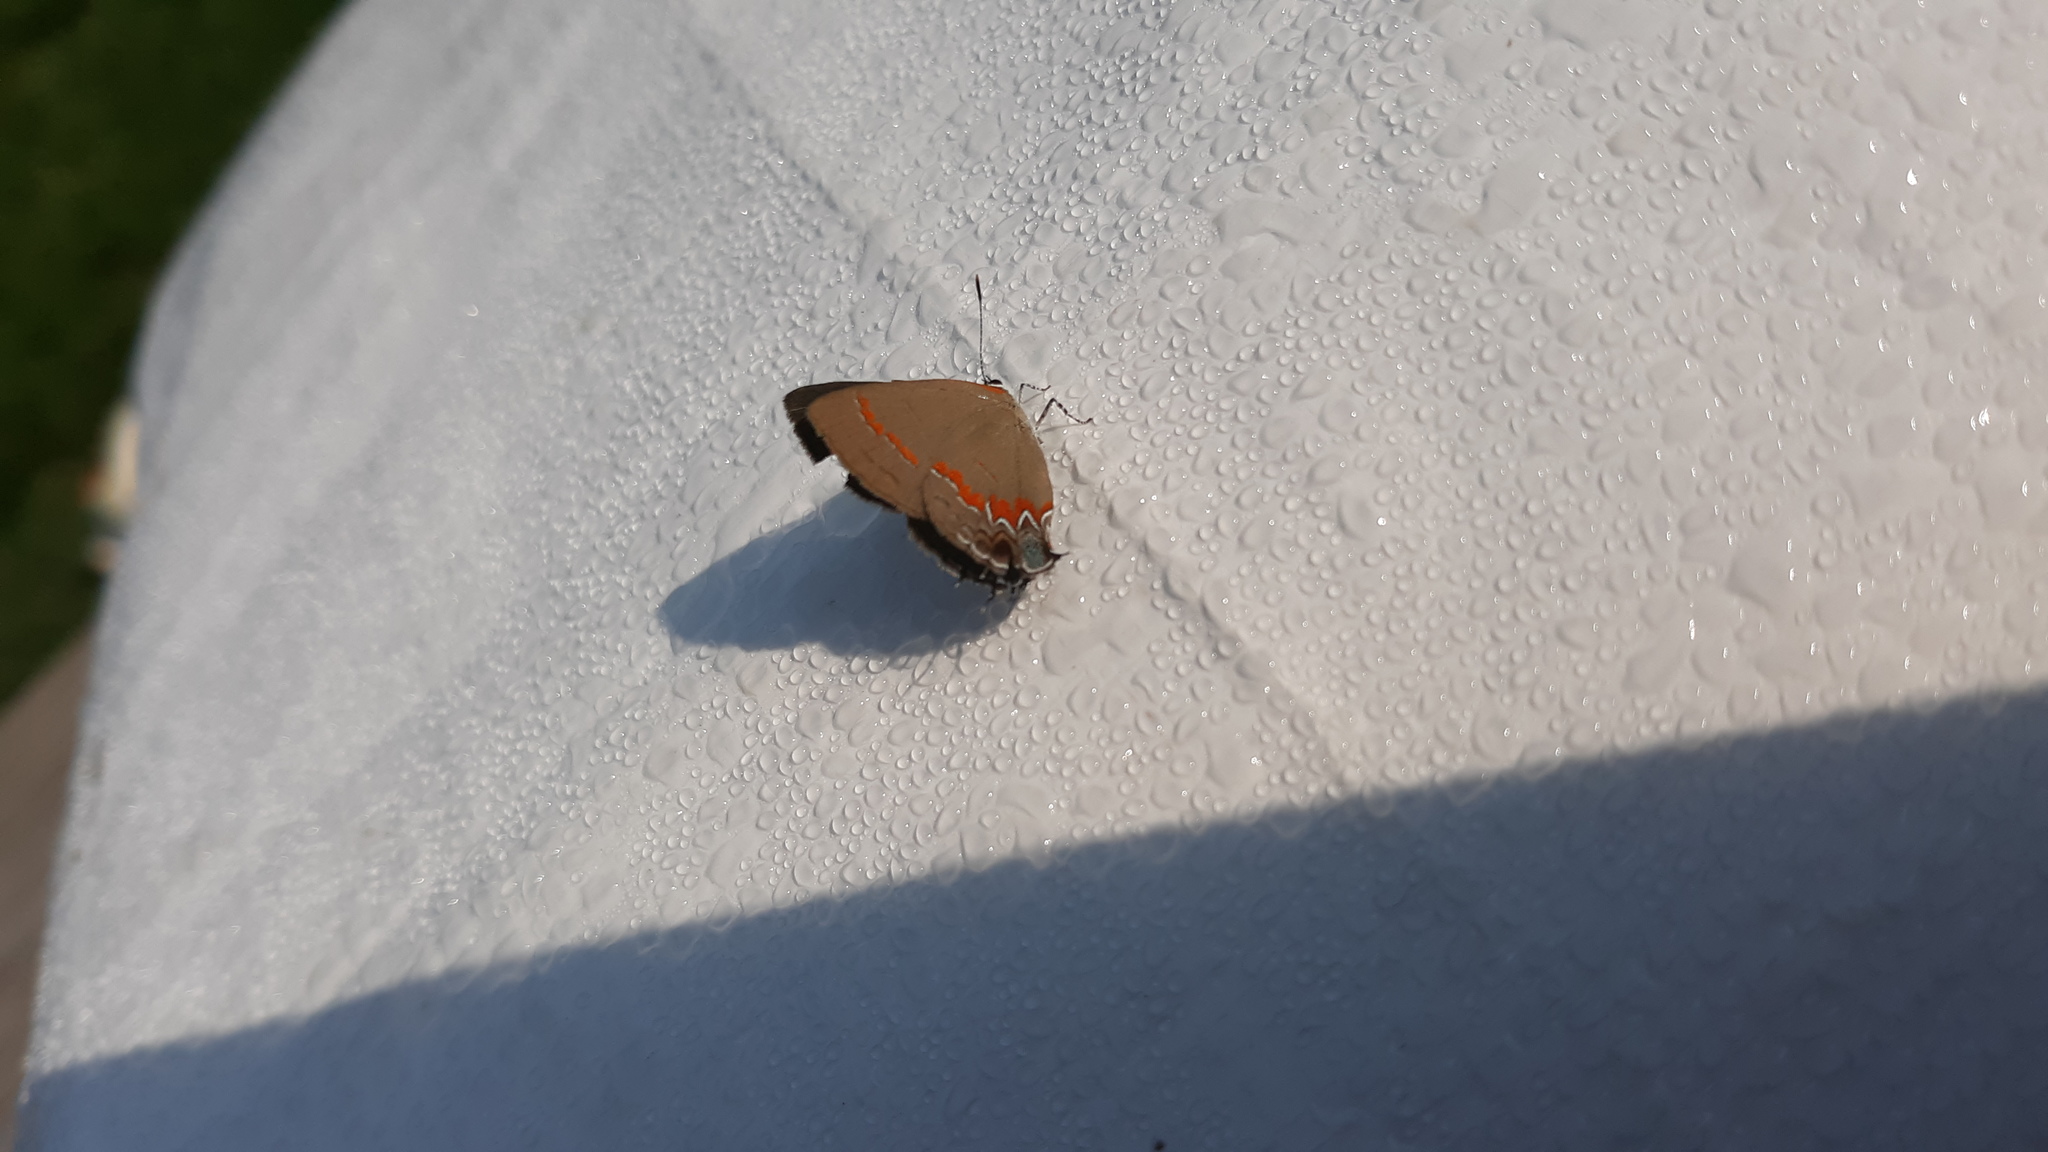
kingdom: Animalia
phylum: Arthropoda
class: Insecta
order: Lepidoptera
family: Lycaenidae
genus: Calycopis
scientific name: Calycopis cecrops
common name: Red-banded hairstreak
